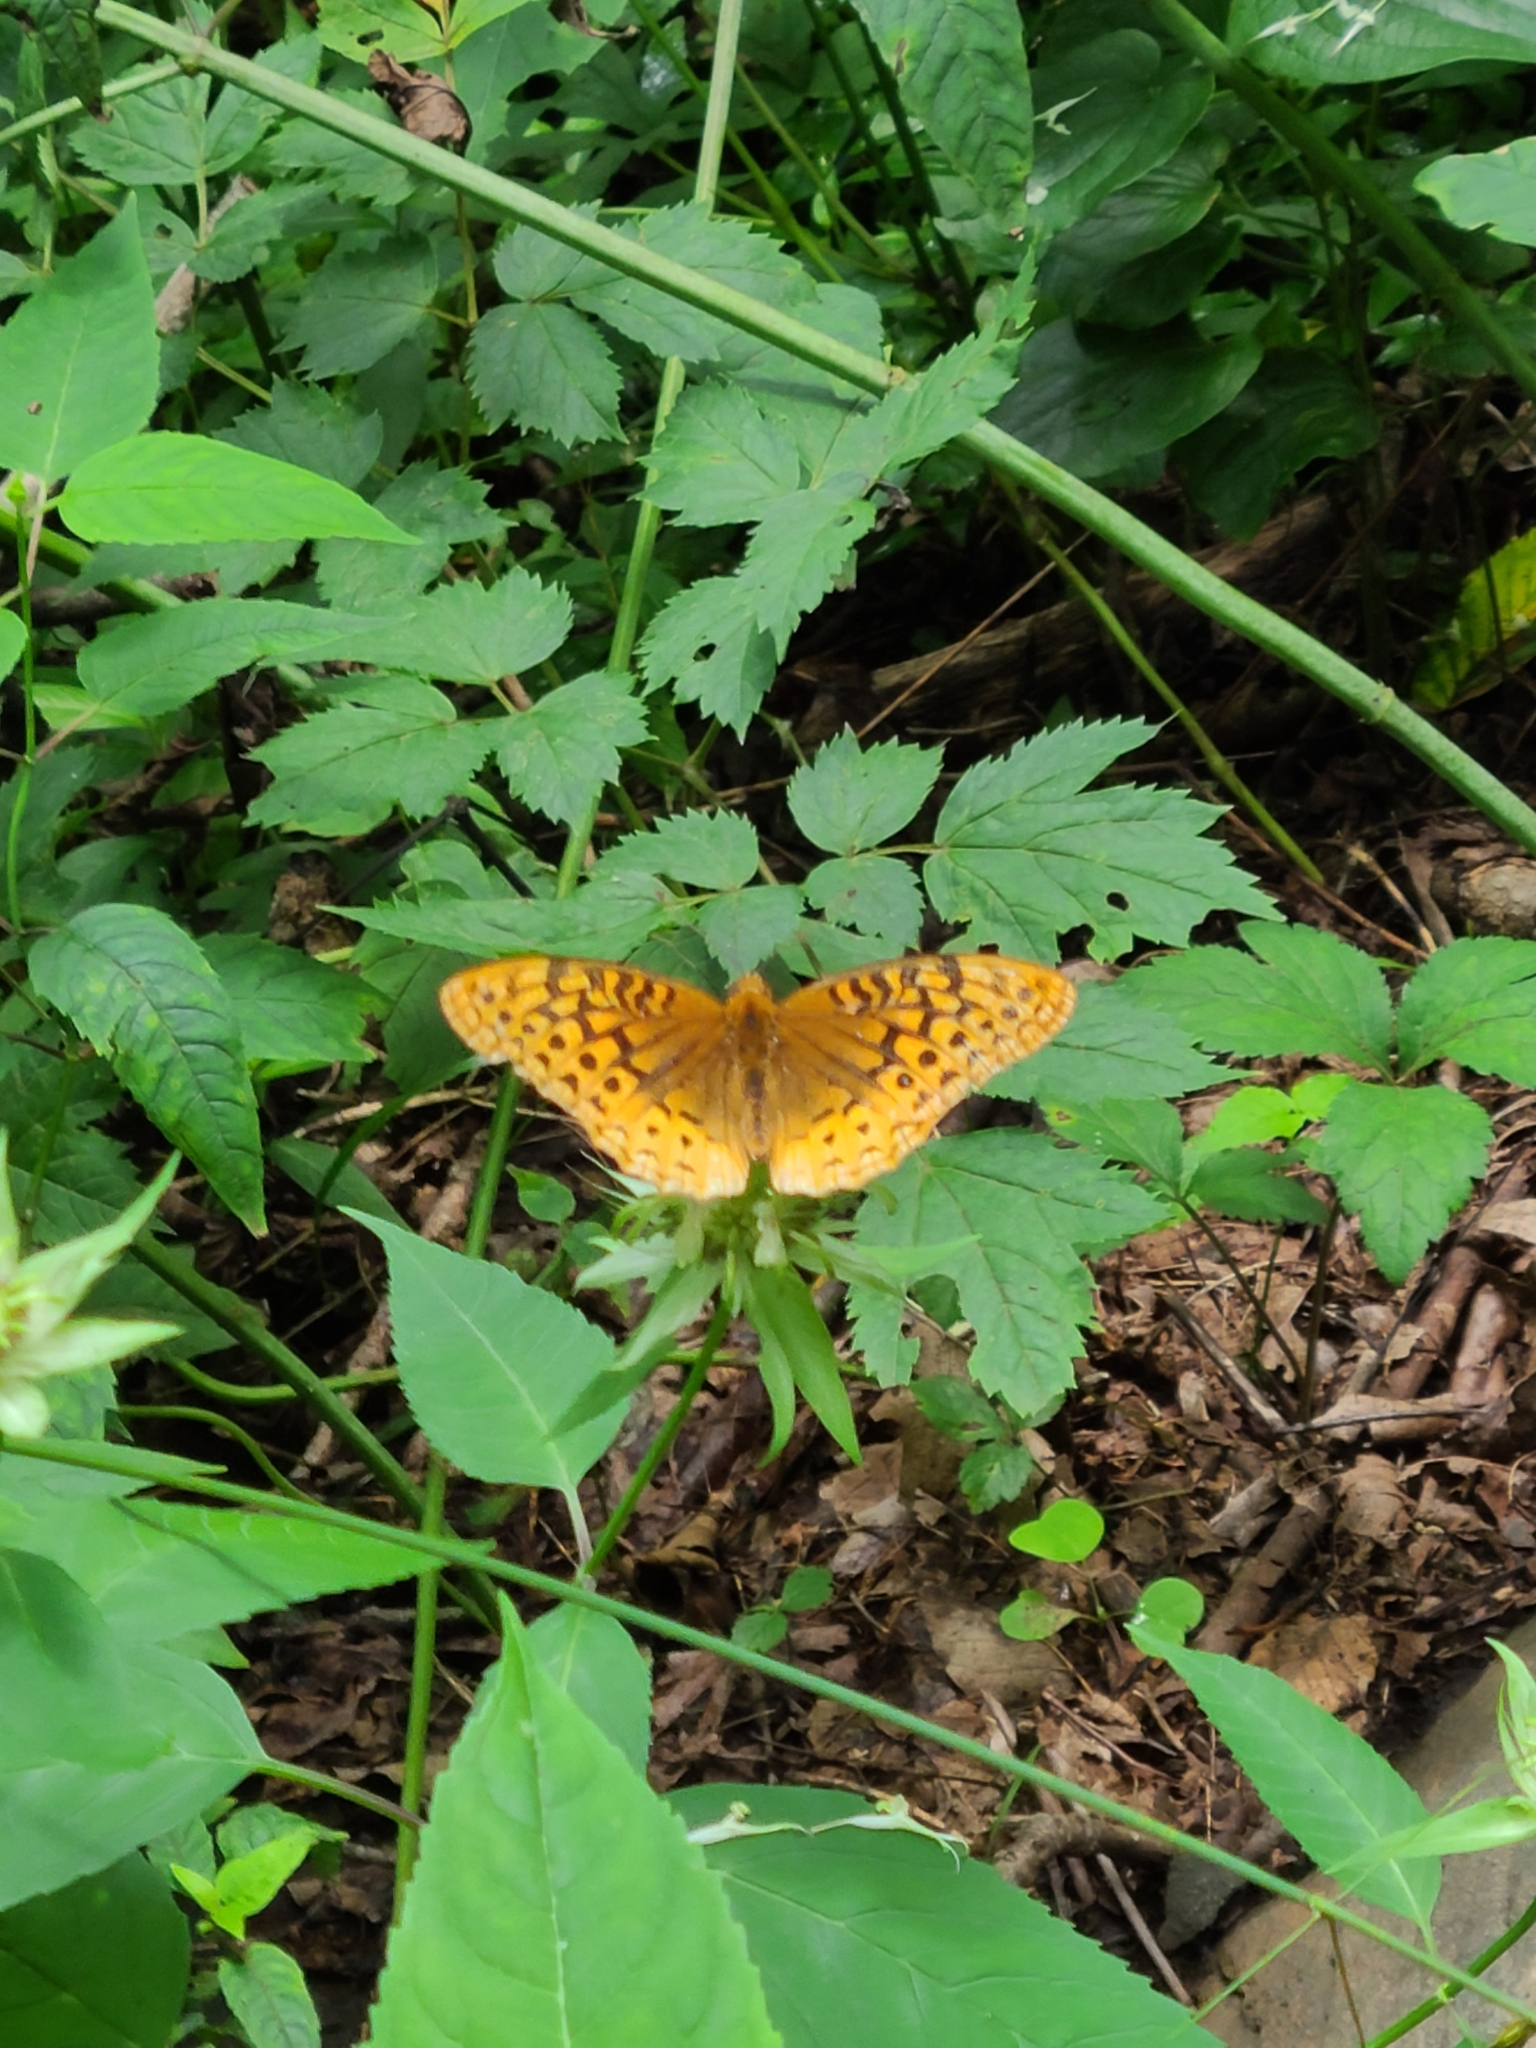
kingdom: Animalia
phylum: Arthropoda
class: Insecta
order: Lepidoptera
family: Nymphalidae
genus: Speyeria
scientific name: Speyeria cybele
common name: Great spangled fritillary
